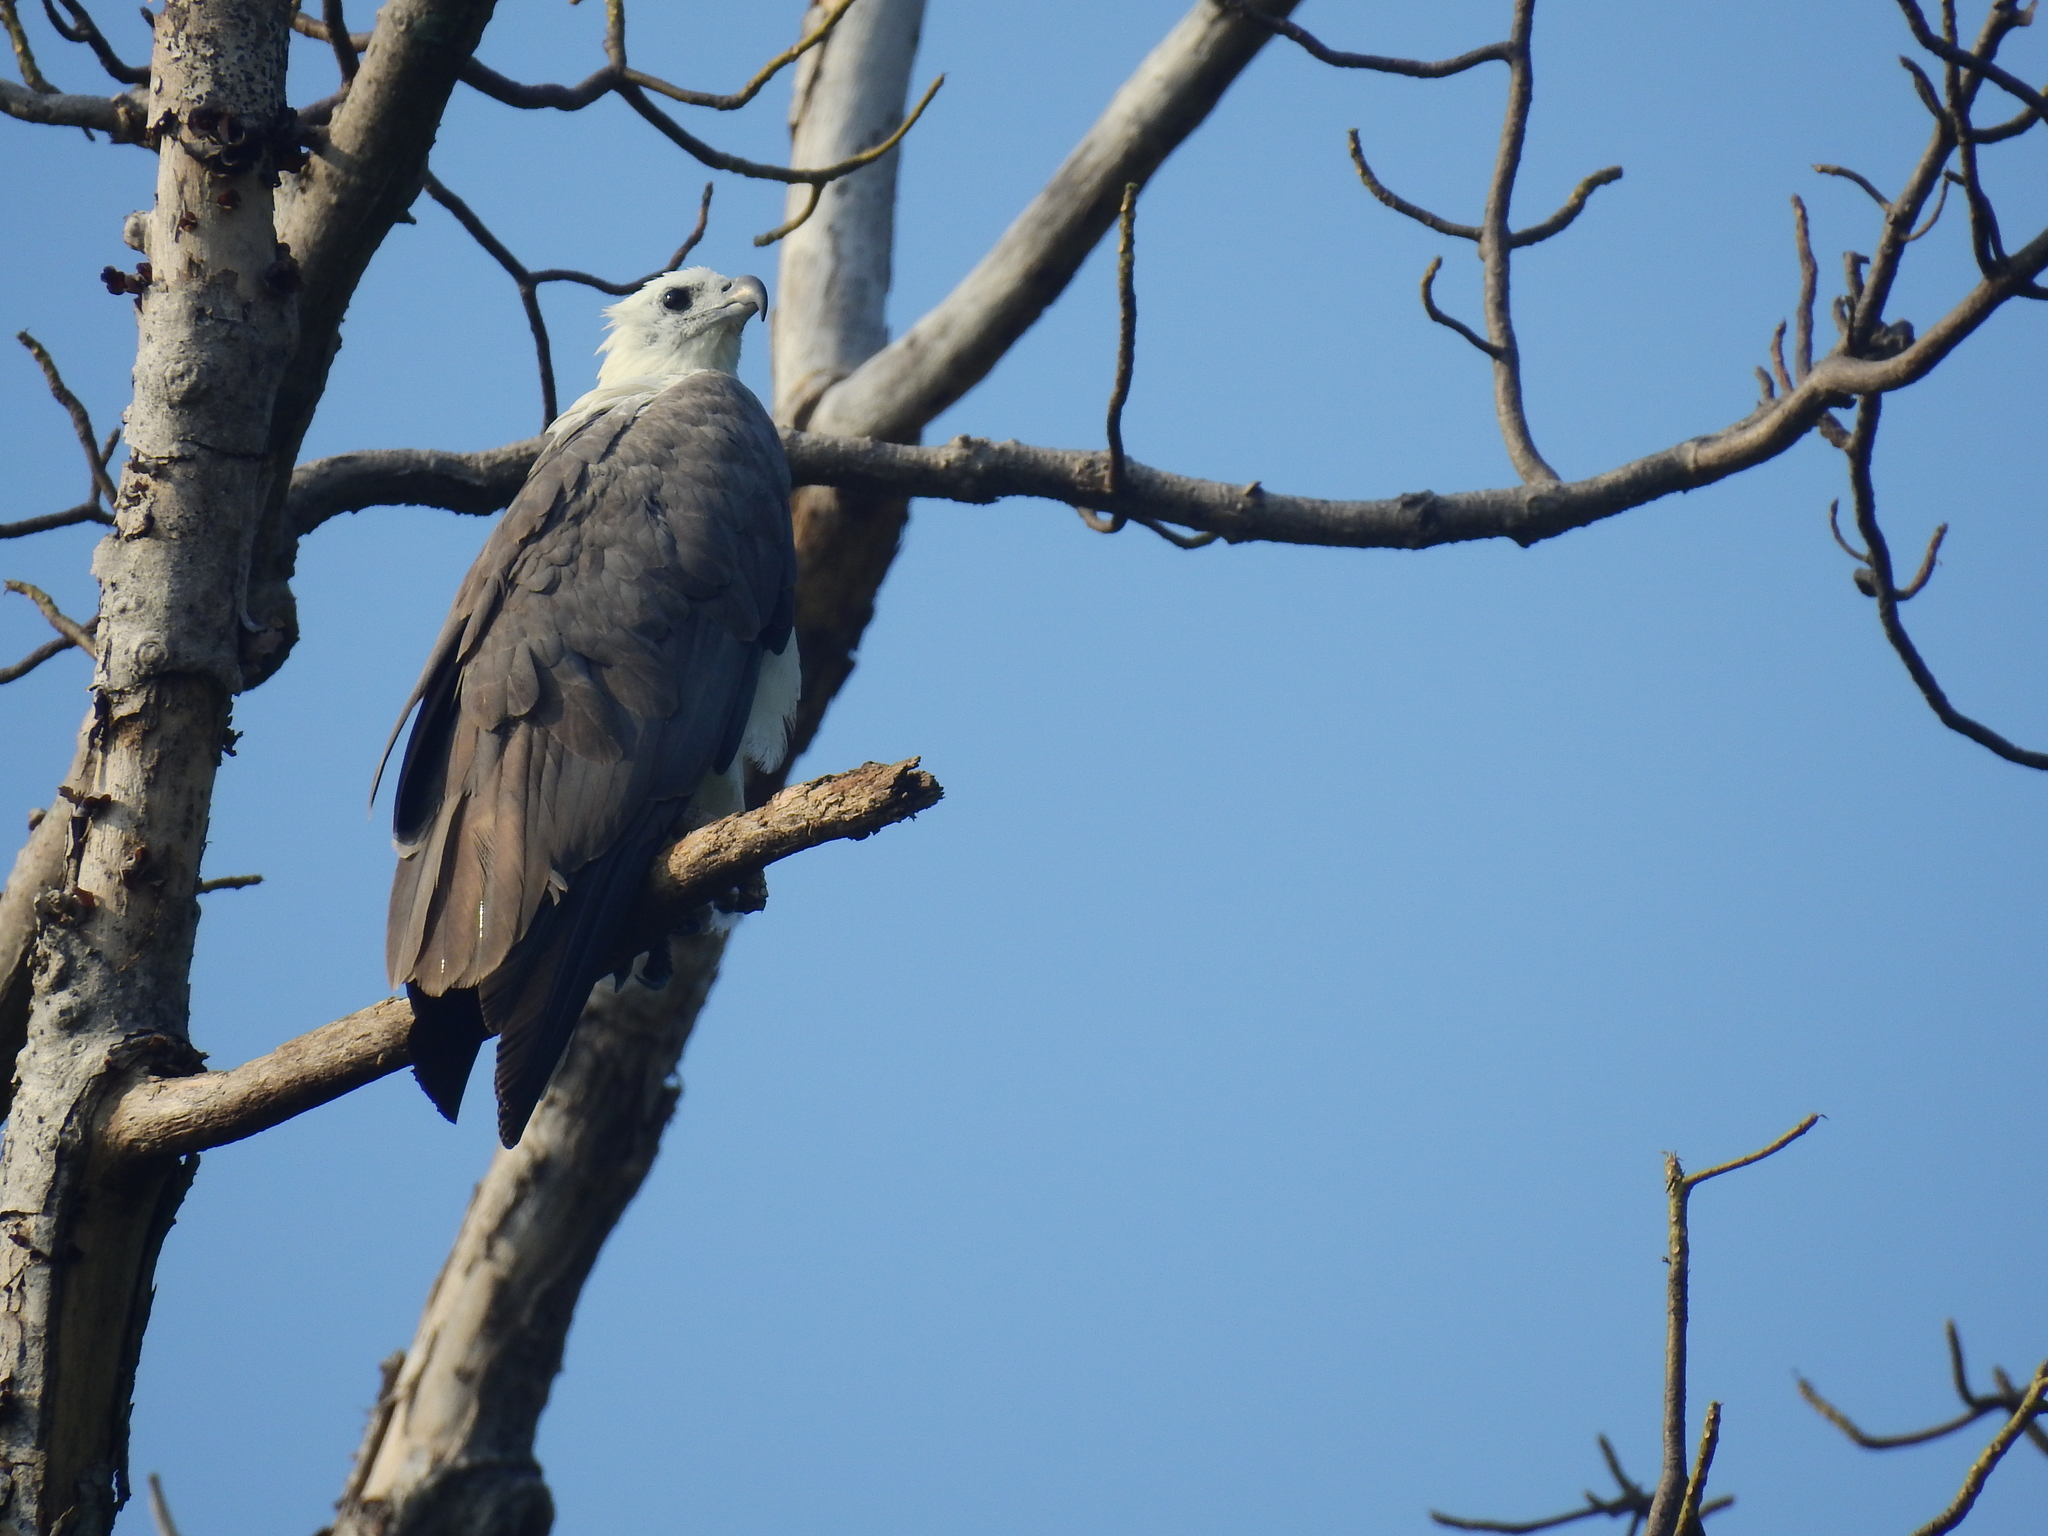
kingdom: Animalia
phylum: Chordata
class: Aves
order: Accipitriformes
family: Accipitridae
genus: Haliaeetus
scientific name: Haliaeetus leucogaster
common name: White-bellied sea eagle
